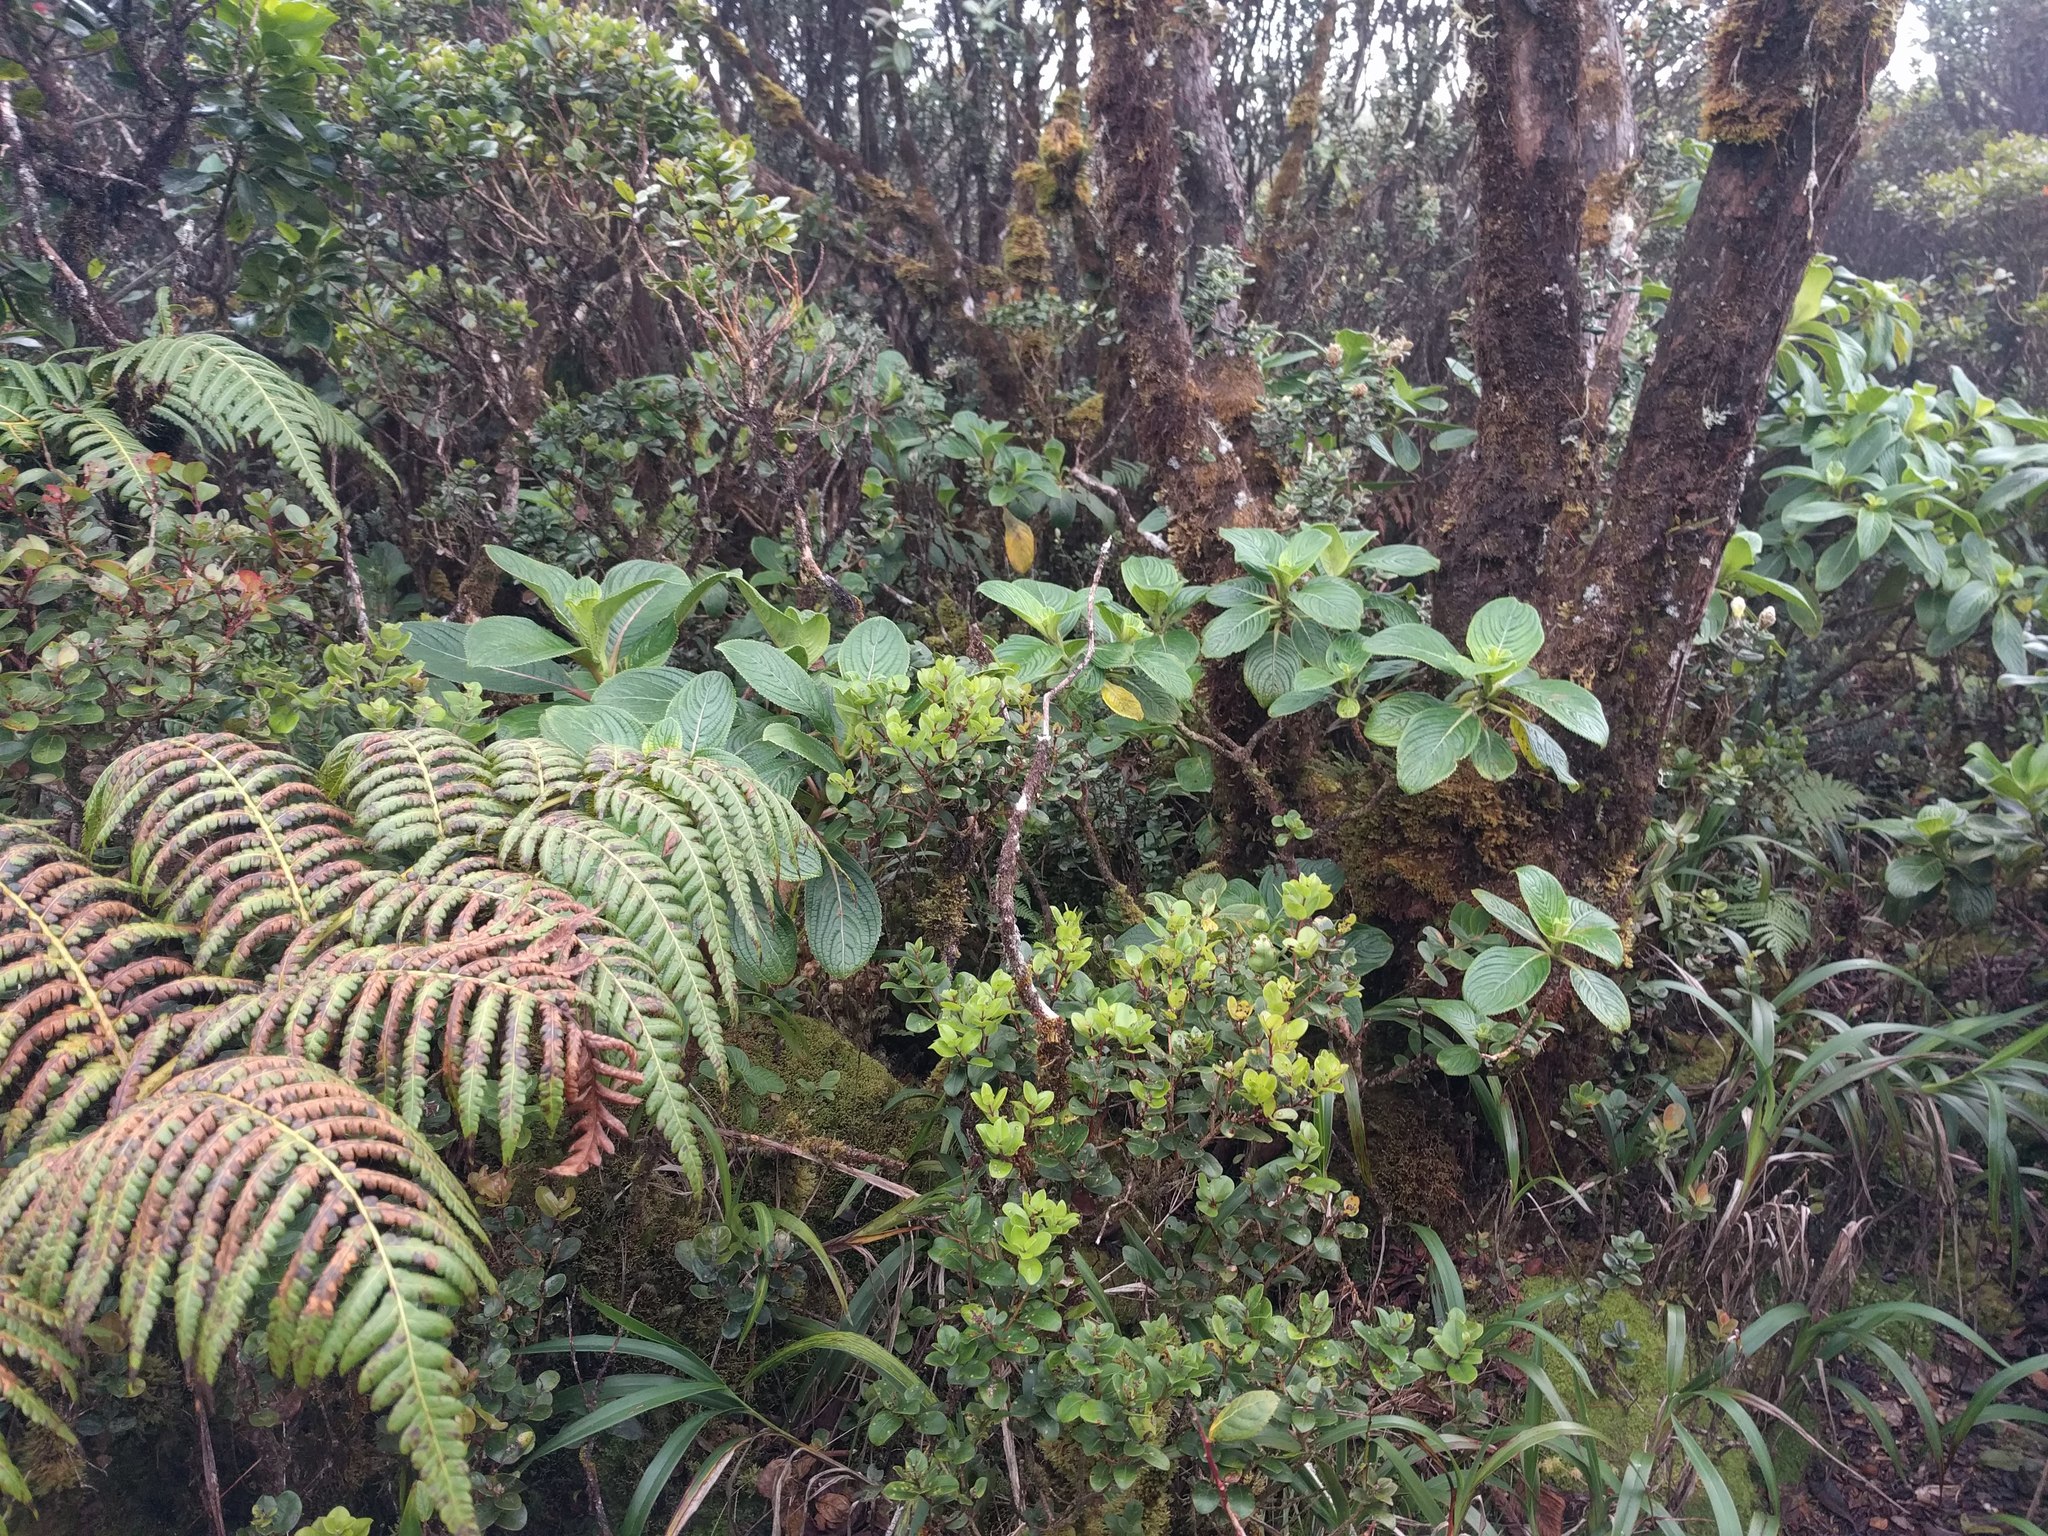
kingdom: Plantae
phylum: Tracheophyta
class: Magnoliopsida
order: Cornales
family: Hydrangeaceae
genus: Hydrangea
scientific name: Hydrangea arguta
